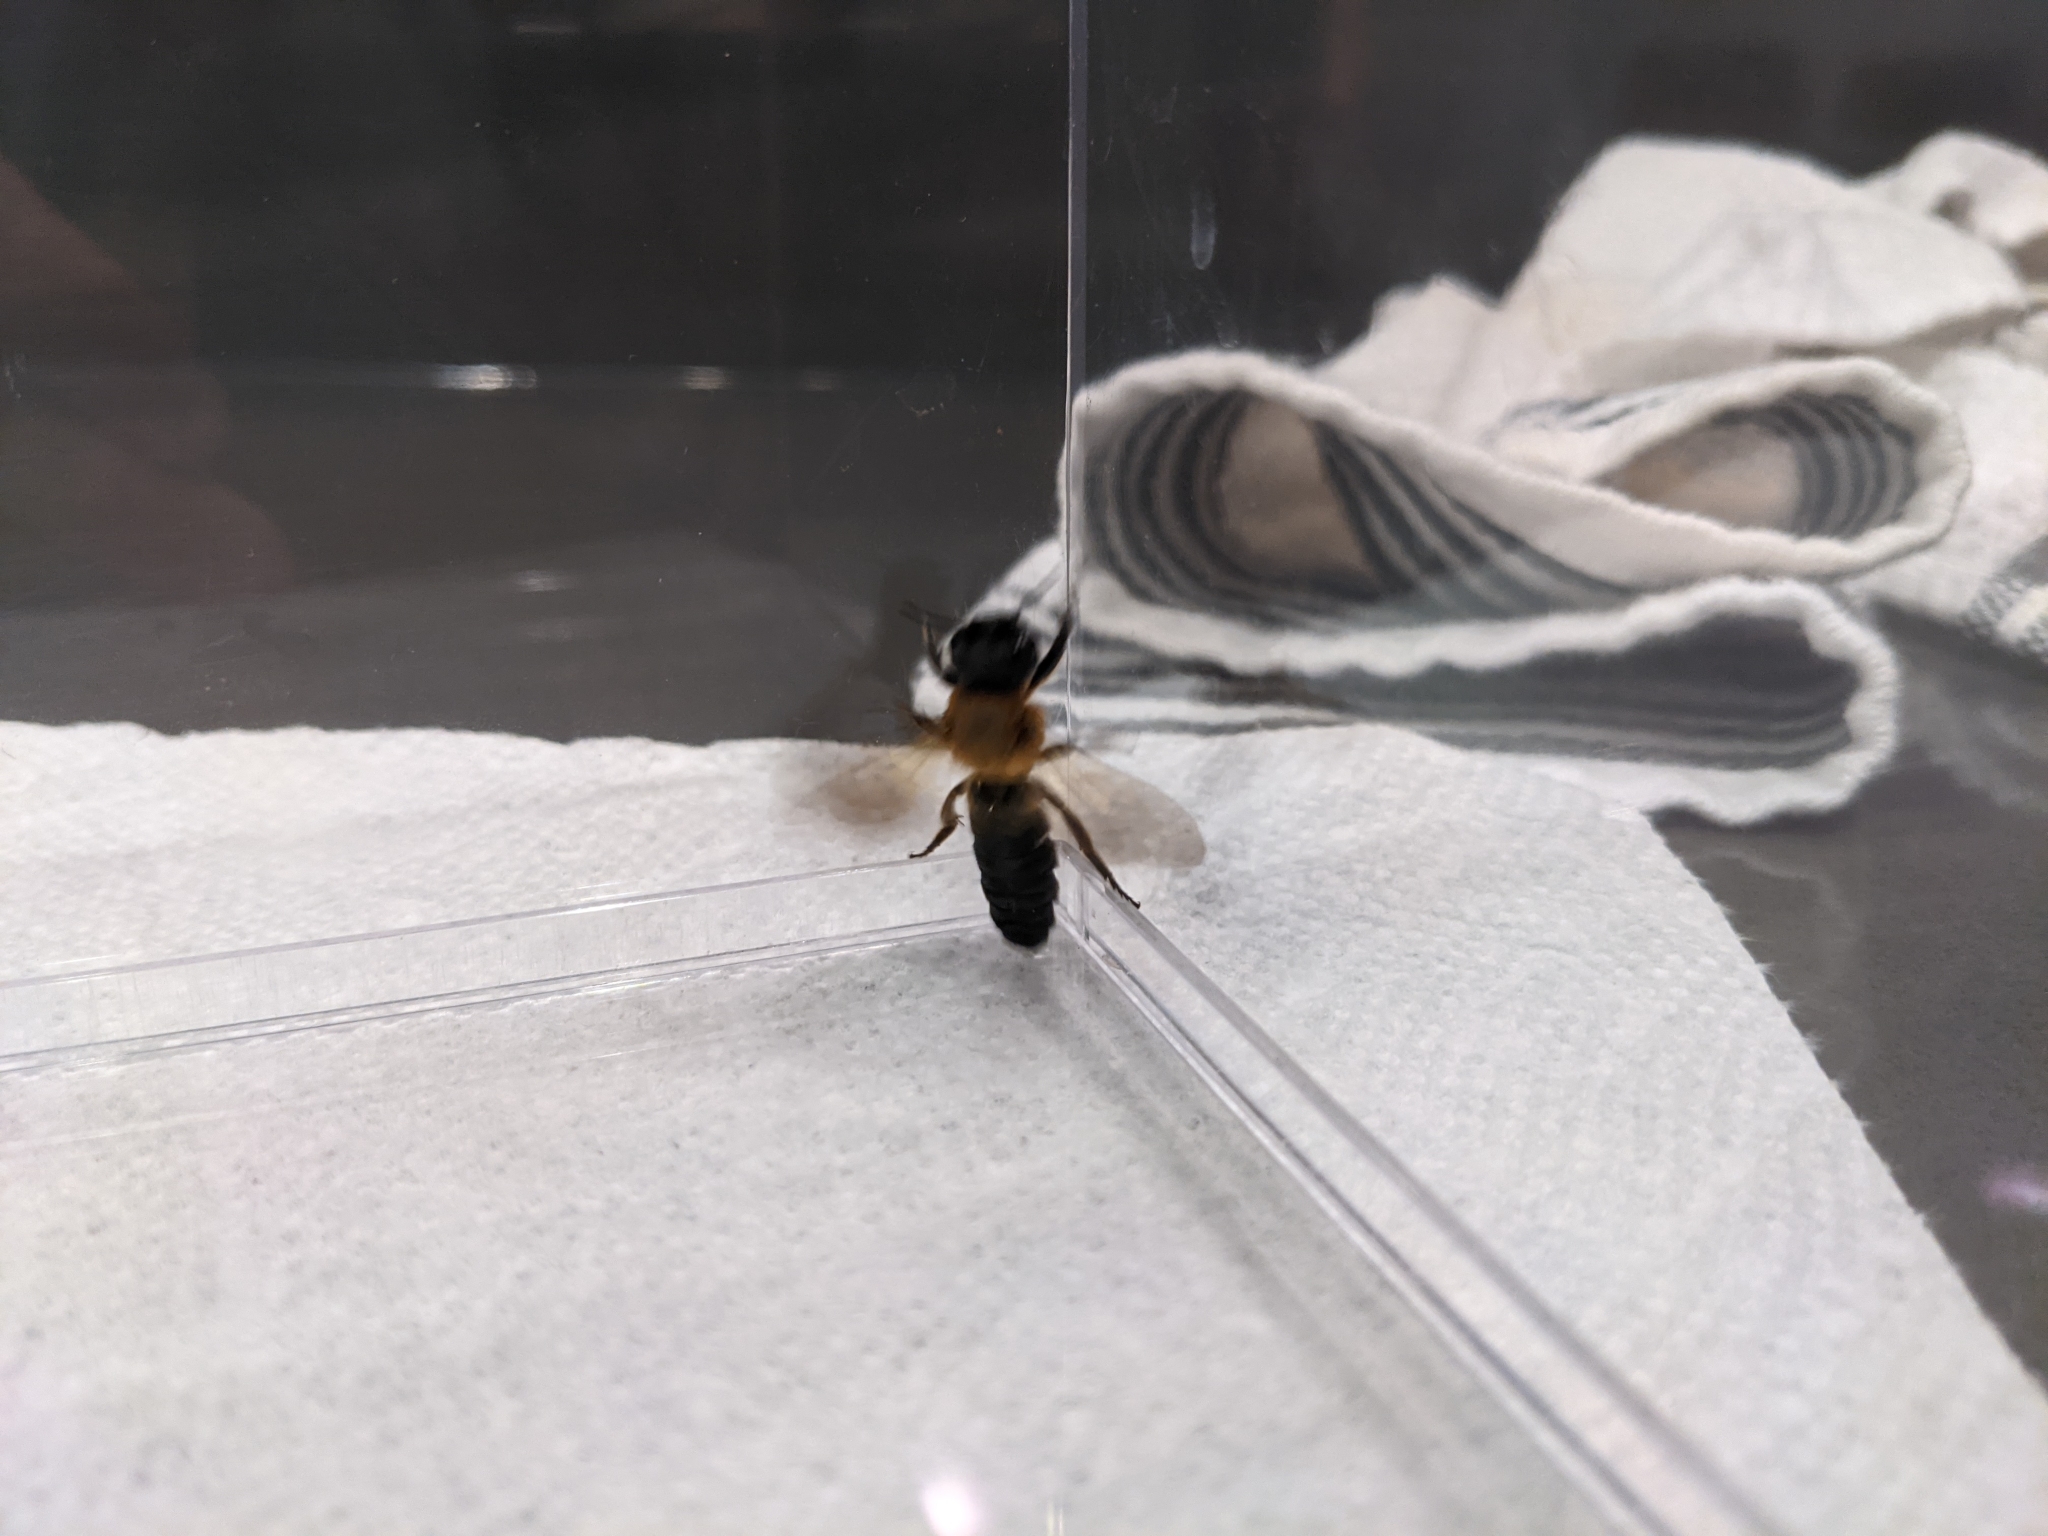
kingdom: Animalia
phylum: Arthropoda
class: Insecta
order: Hymenoptera
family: Megachilidae
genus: Megachile
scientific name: Megachile sculpturalis
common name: Sculptured resin bee
